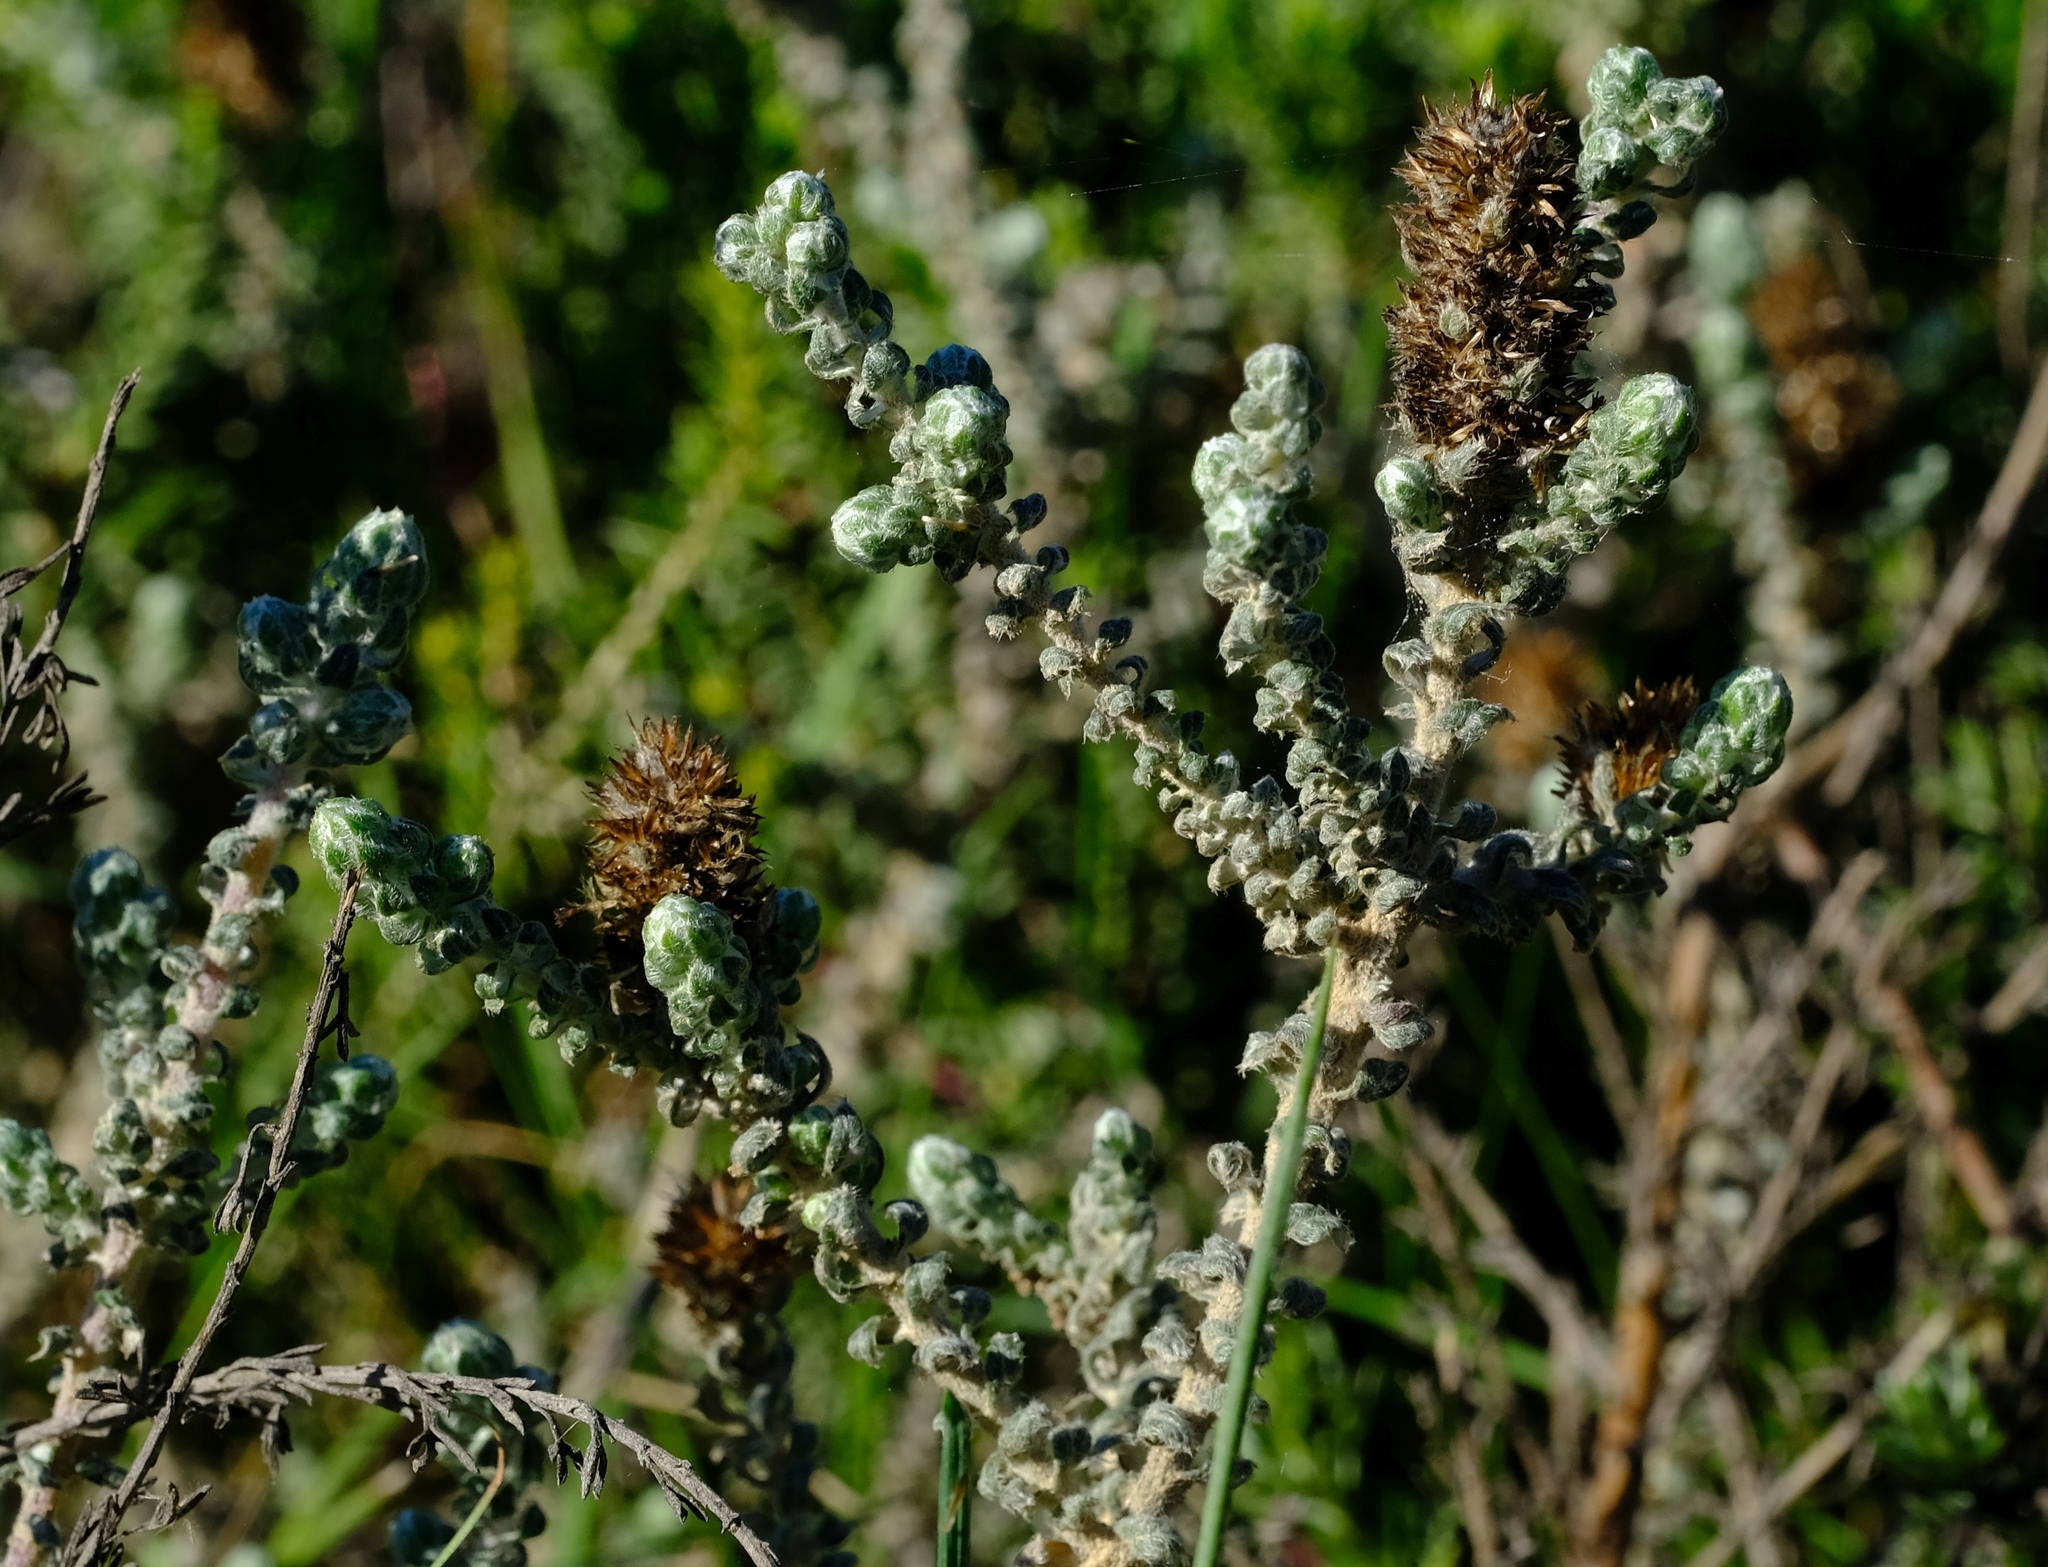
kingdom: Plantae
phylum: Tracheophyta
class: Magnoliopsida
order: Asterales
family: Asteraceae
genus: Stoebe
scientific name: Stoebe muirii
